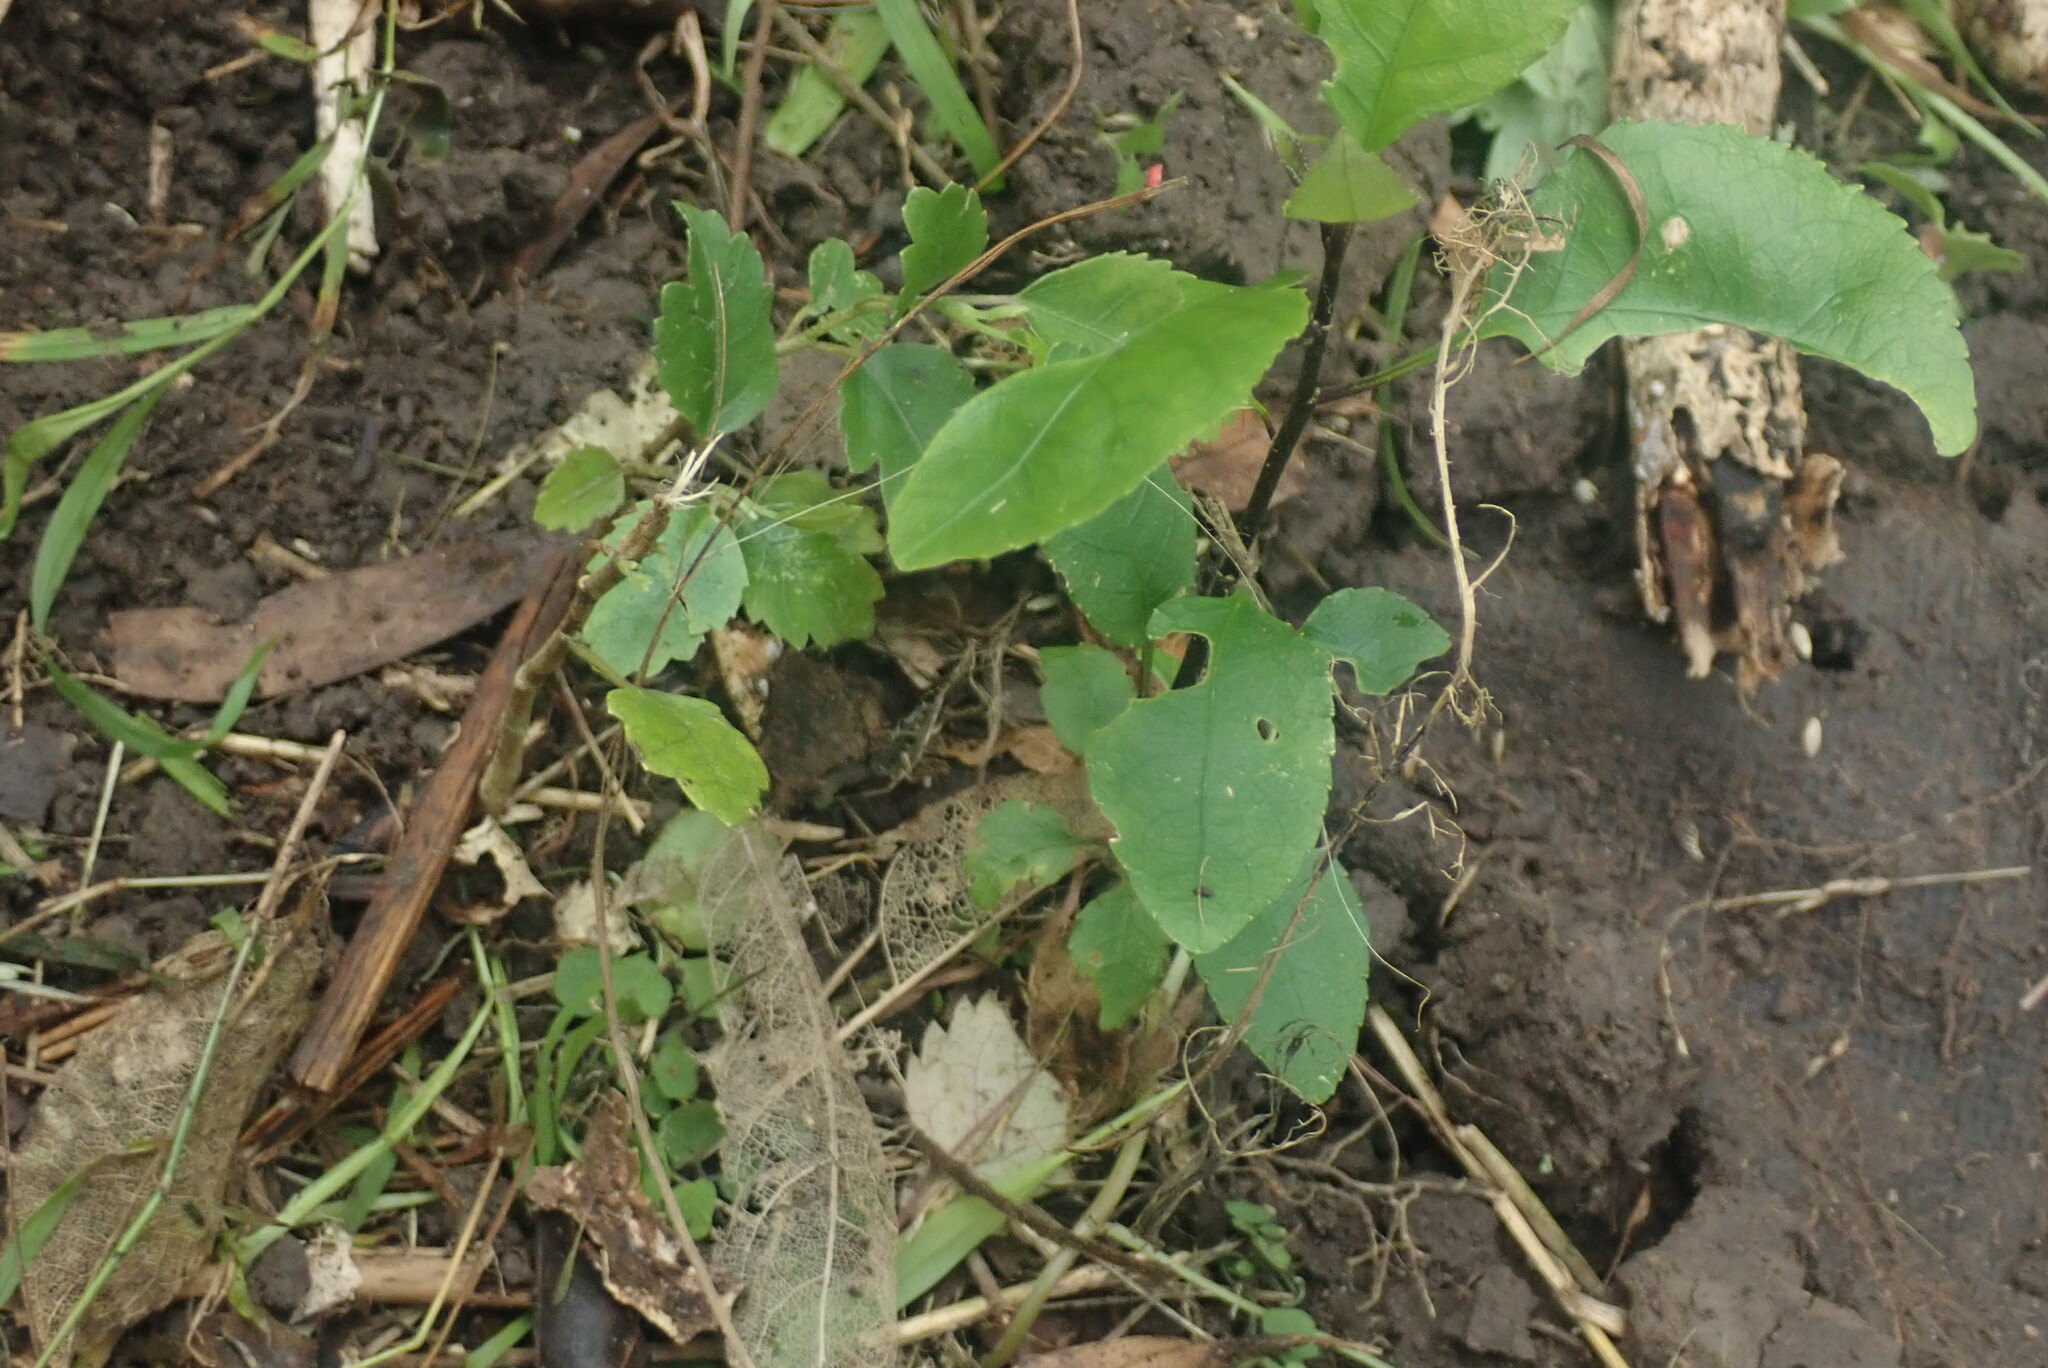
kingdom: Plantae
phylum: Tracheophyta
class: Magnoliopsida
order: Malpighiales
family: Violaceae
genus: Melicytus
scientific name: Melicytus ramiflorus
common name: Mahoe
